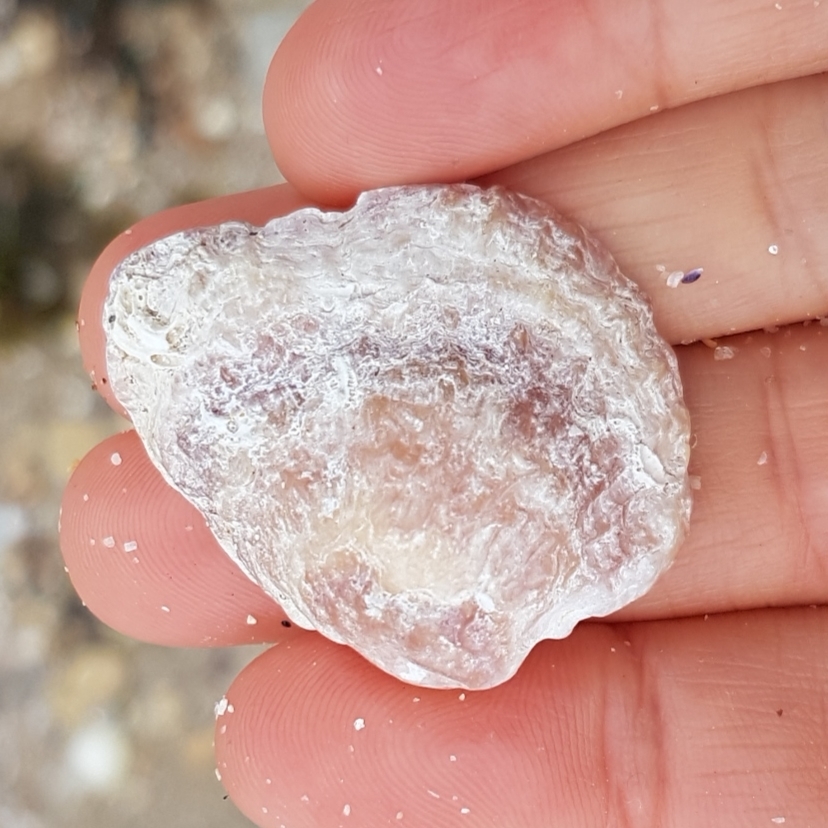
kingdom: Animalia
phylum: Mollusca
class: Bivalvia
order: Pectinida
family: Anomiidae
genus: Anomia
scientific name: Anomia ephippium
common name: Saddle oyster
